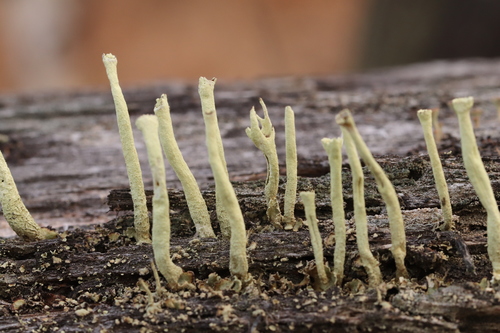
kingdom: Fungi
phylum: Ascomycota
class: Lecanoromycetes
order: Lecanorales
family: Cladoniaceae
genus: Cladonia
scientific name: Cladonia
